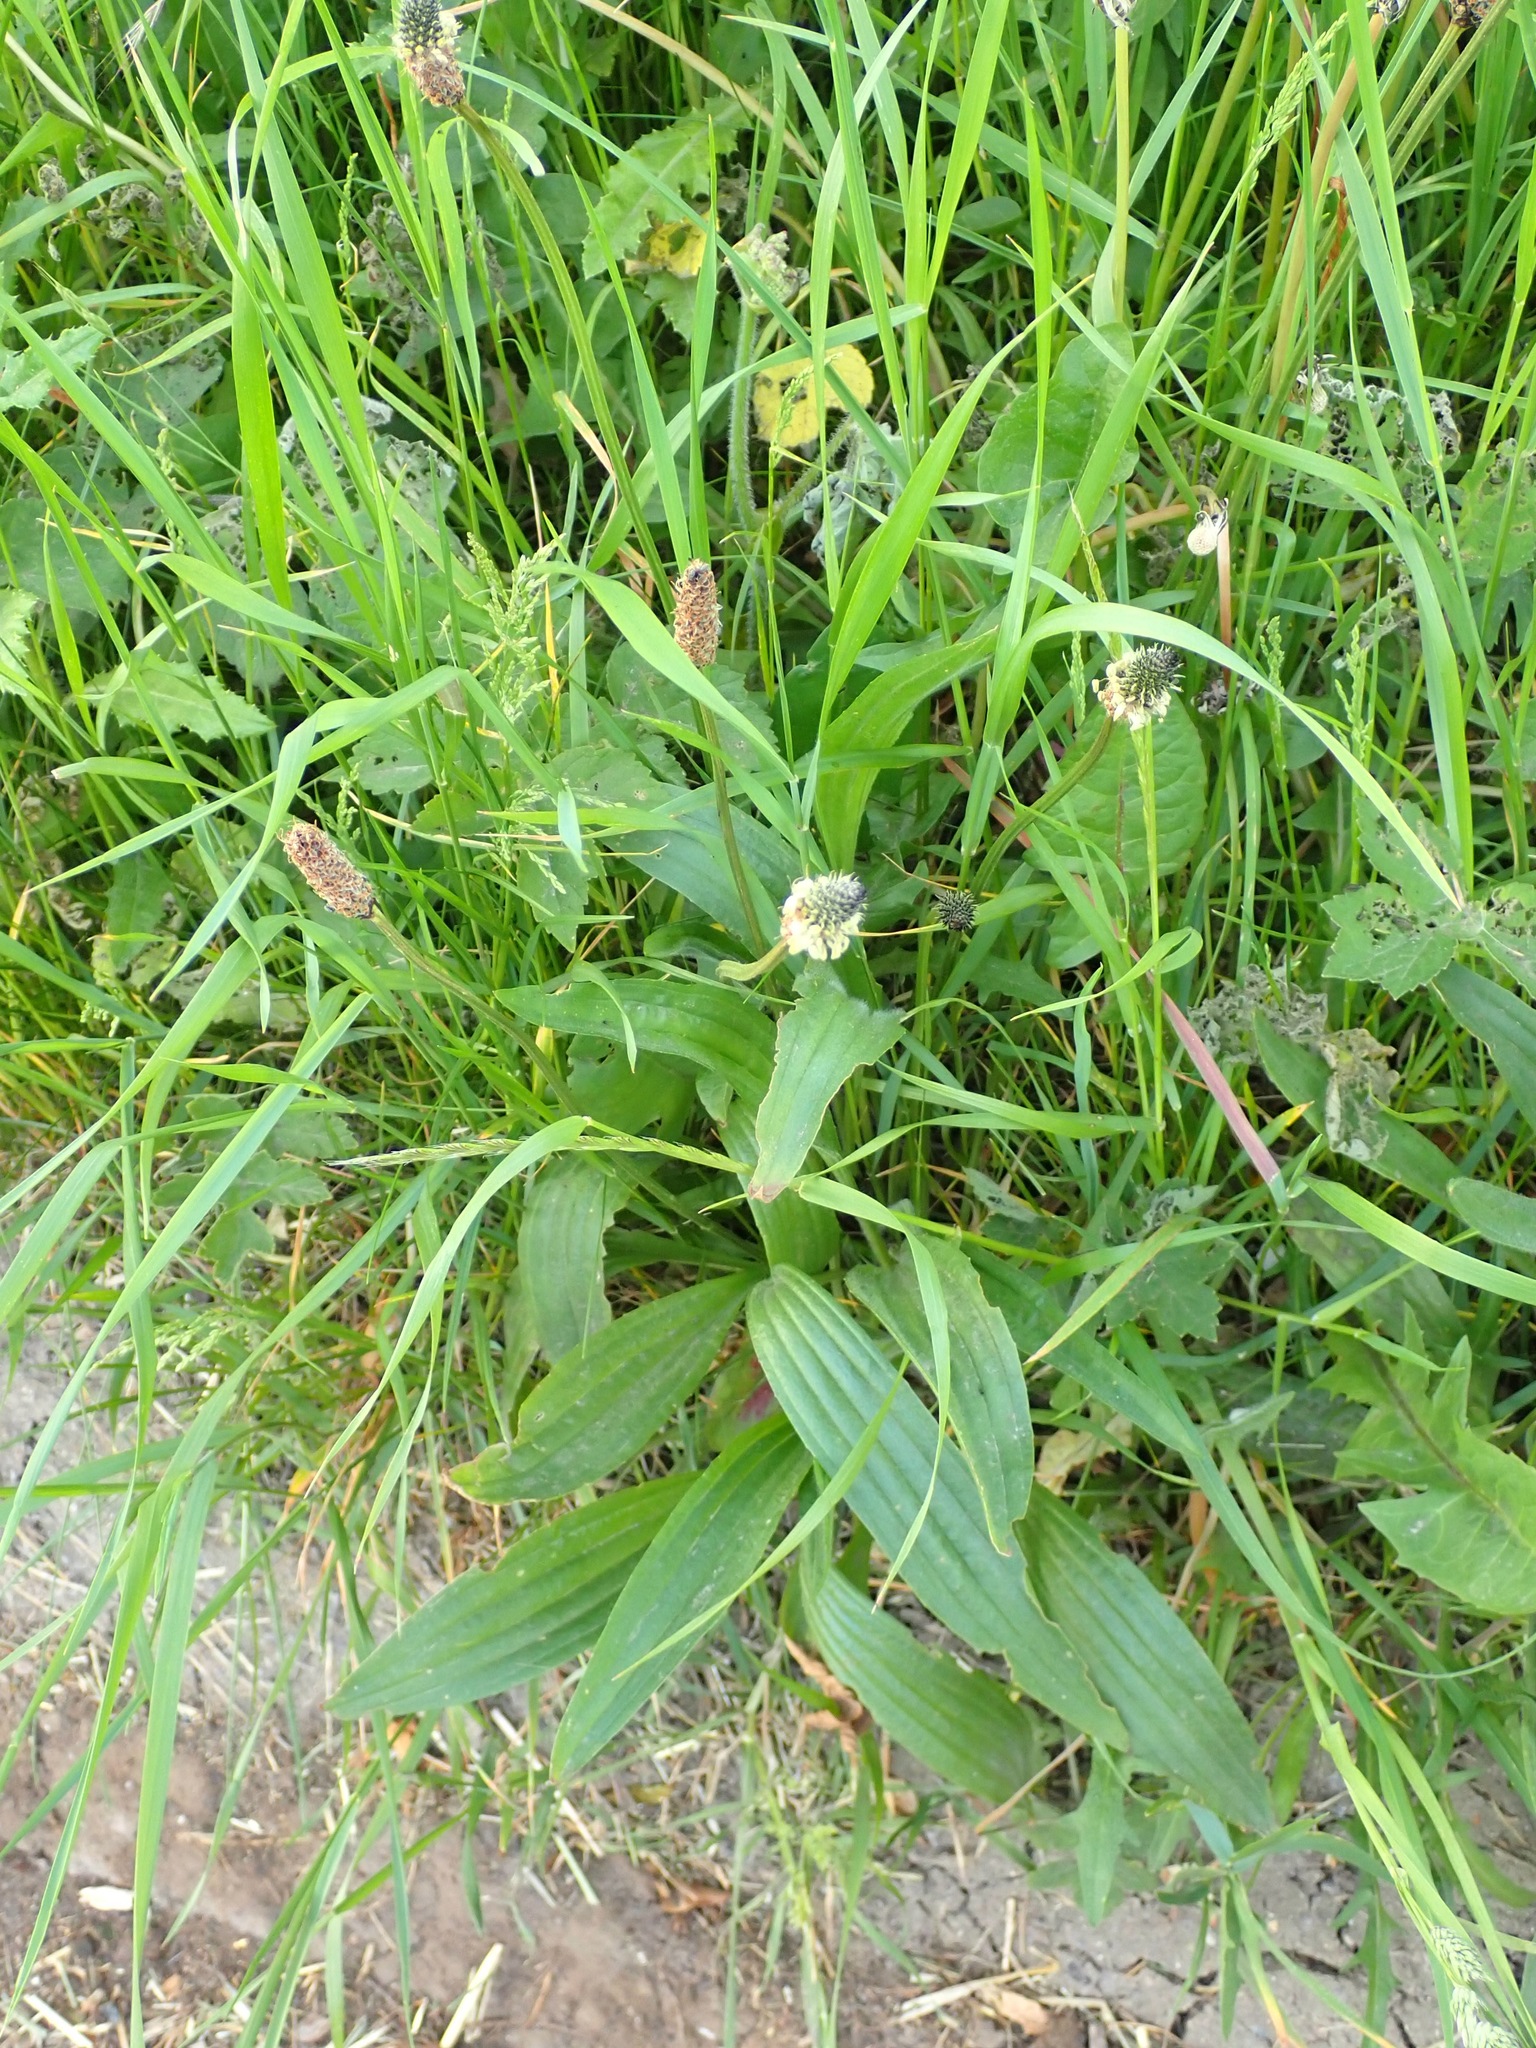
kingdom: Plantae
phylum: Tracheophyta
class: Magnoliopsida
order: Lamiales
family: Plantaginaceae
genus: Plantago
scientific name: Plantago lanceolata
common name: Ribwort plantain
